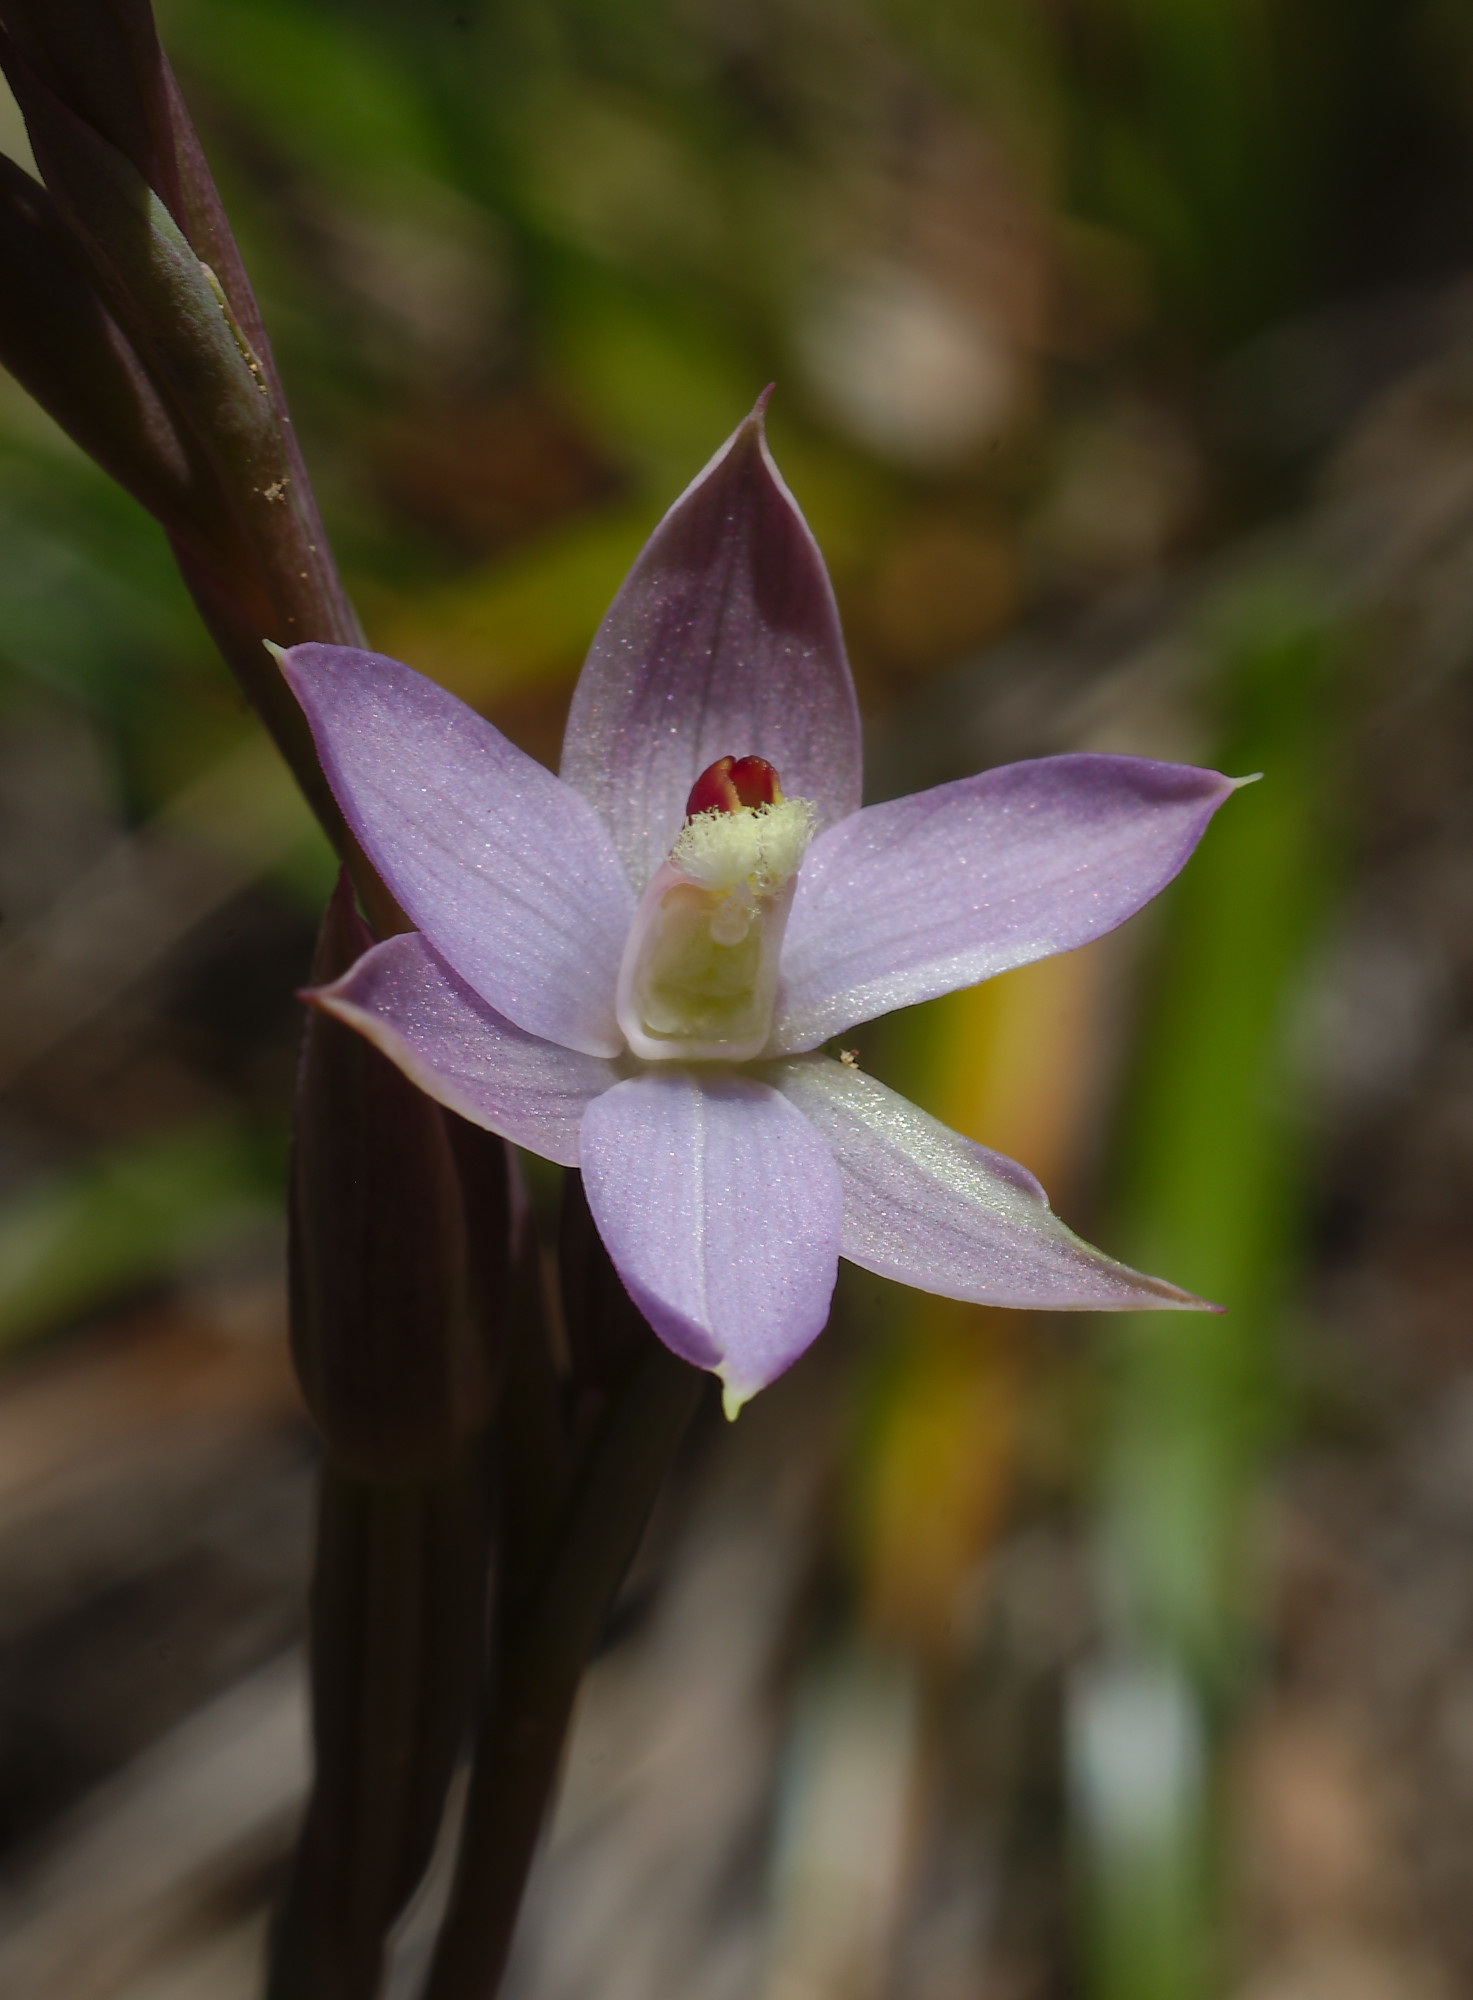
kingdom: Plantae
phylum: Tracheophyta
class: Liliopsida
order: Asparagales
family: Orchidaceae
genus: Thelymitra
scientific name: Thelymitra hatchii
